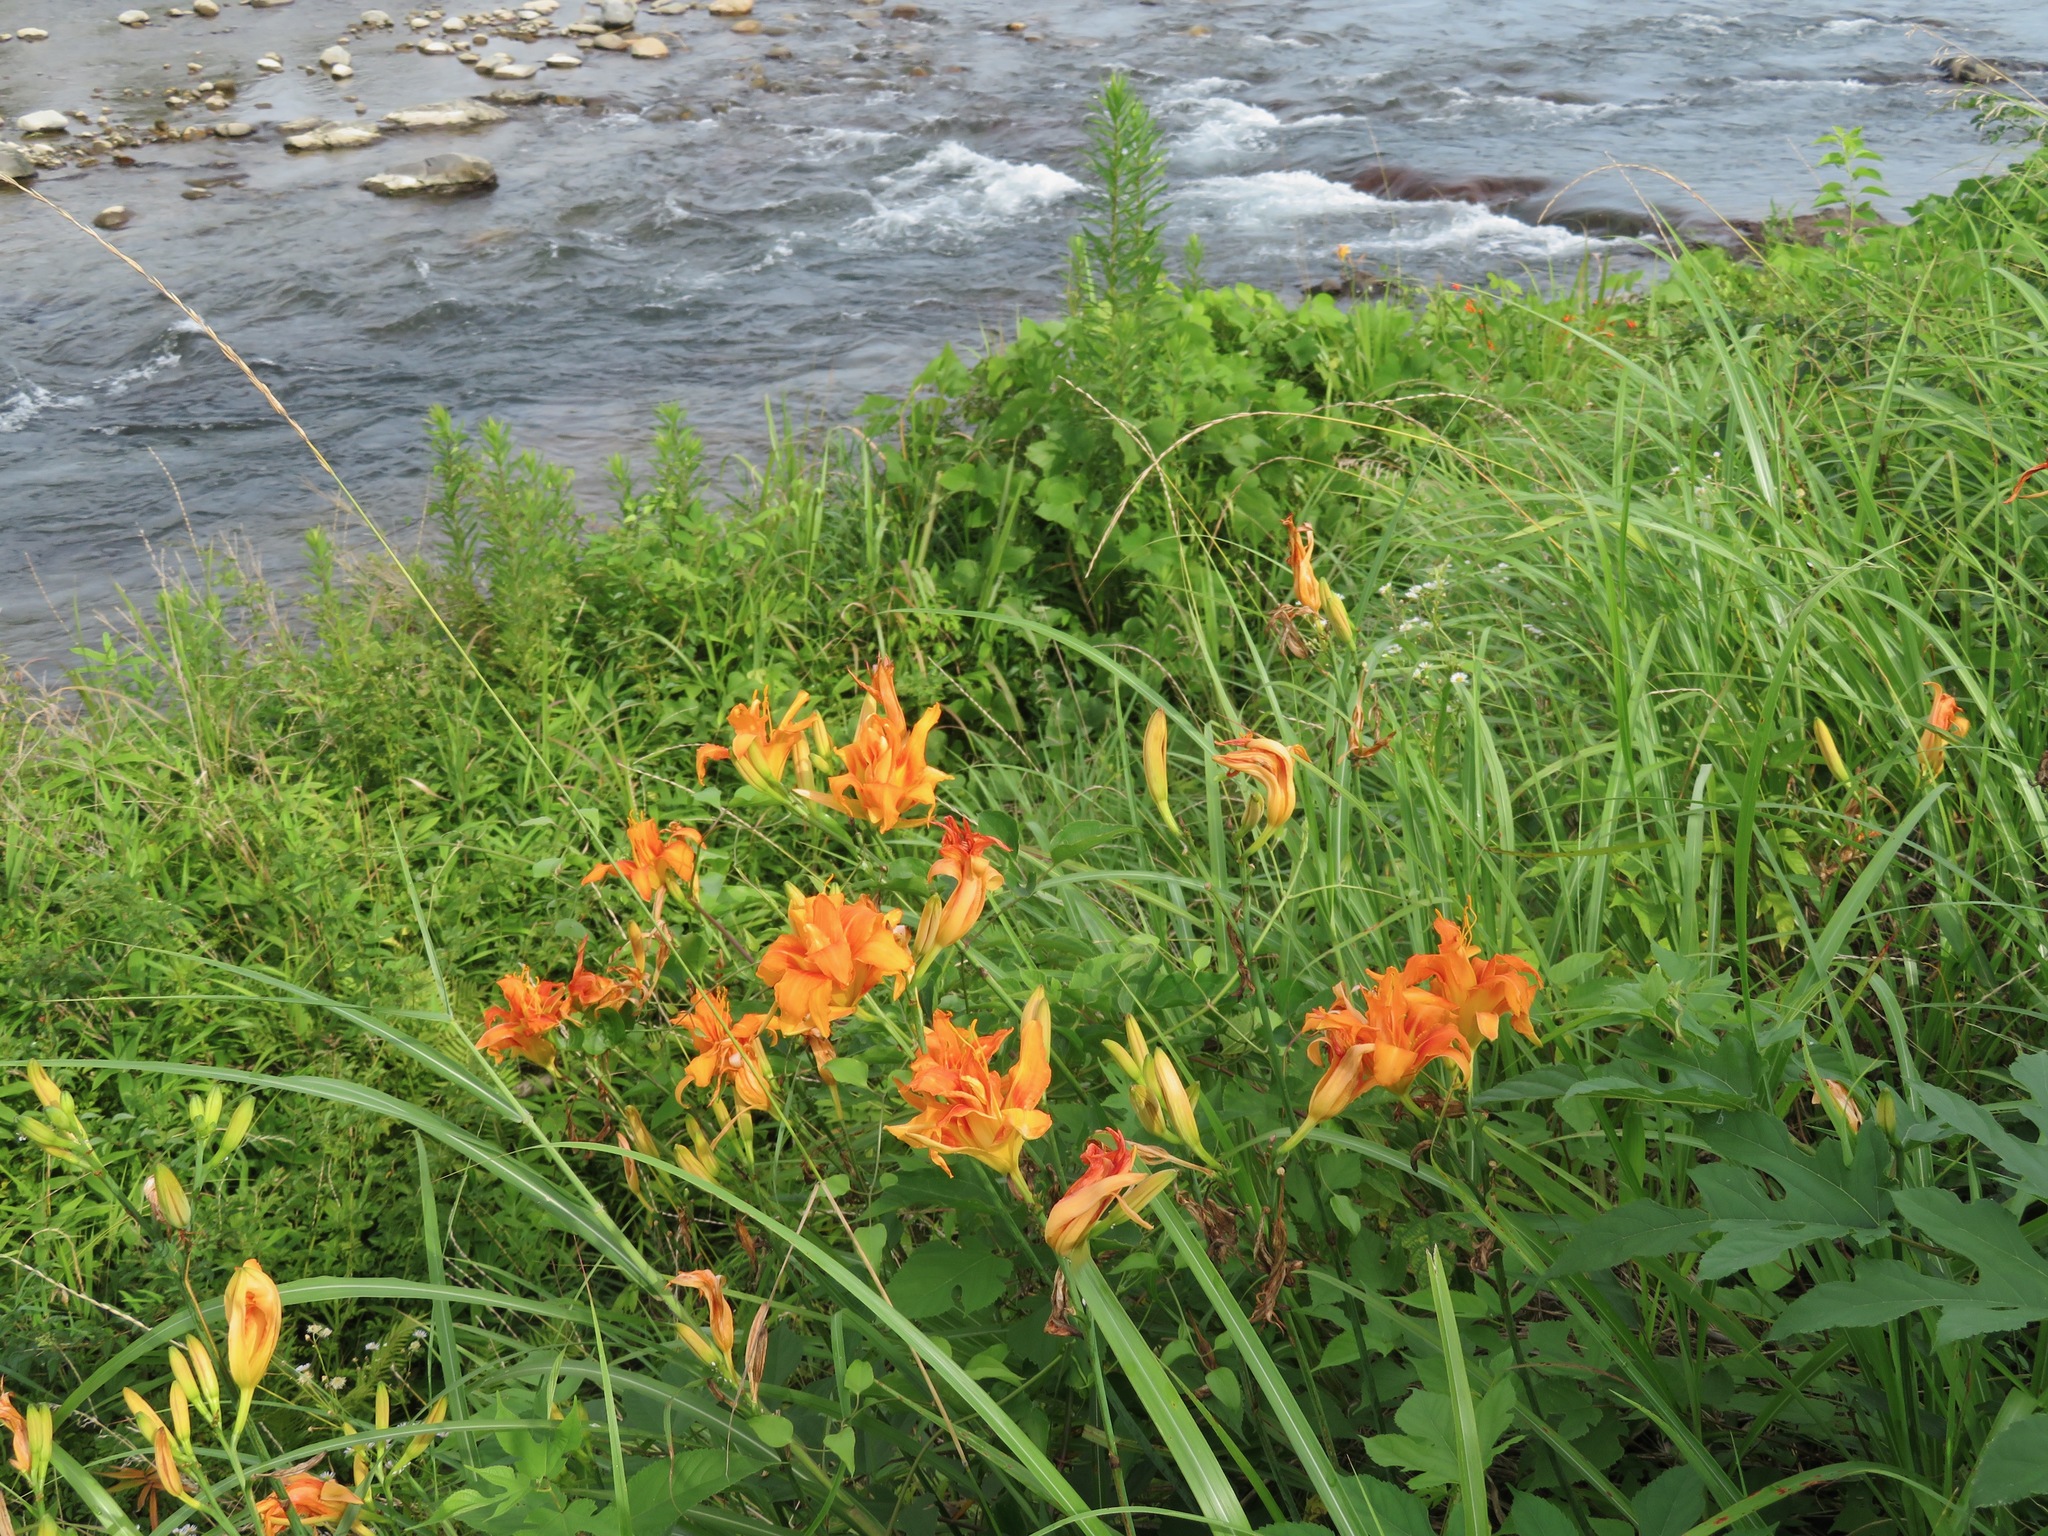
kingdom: Plantae
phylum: Tracheophyta
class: Liliopsida
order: Asparagales
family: Asphodelaceae
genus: Hemerocallis
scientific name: Hemerocallis fulva
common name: Orange day-lily
